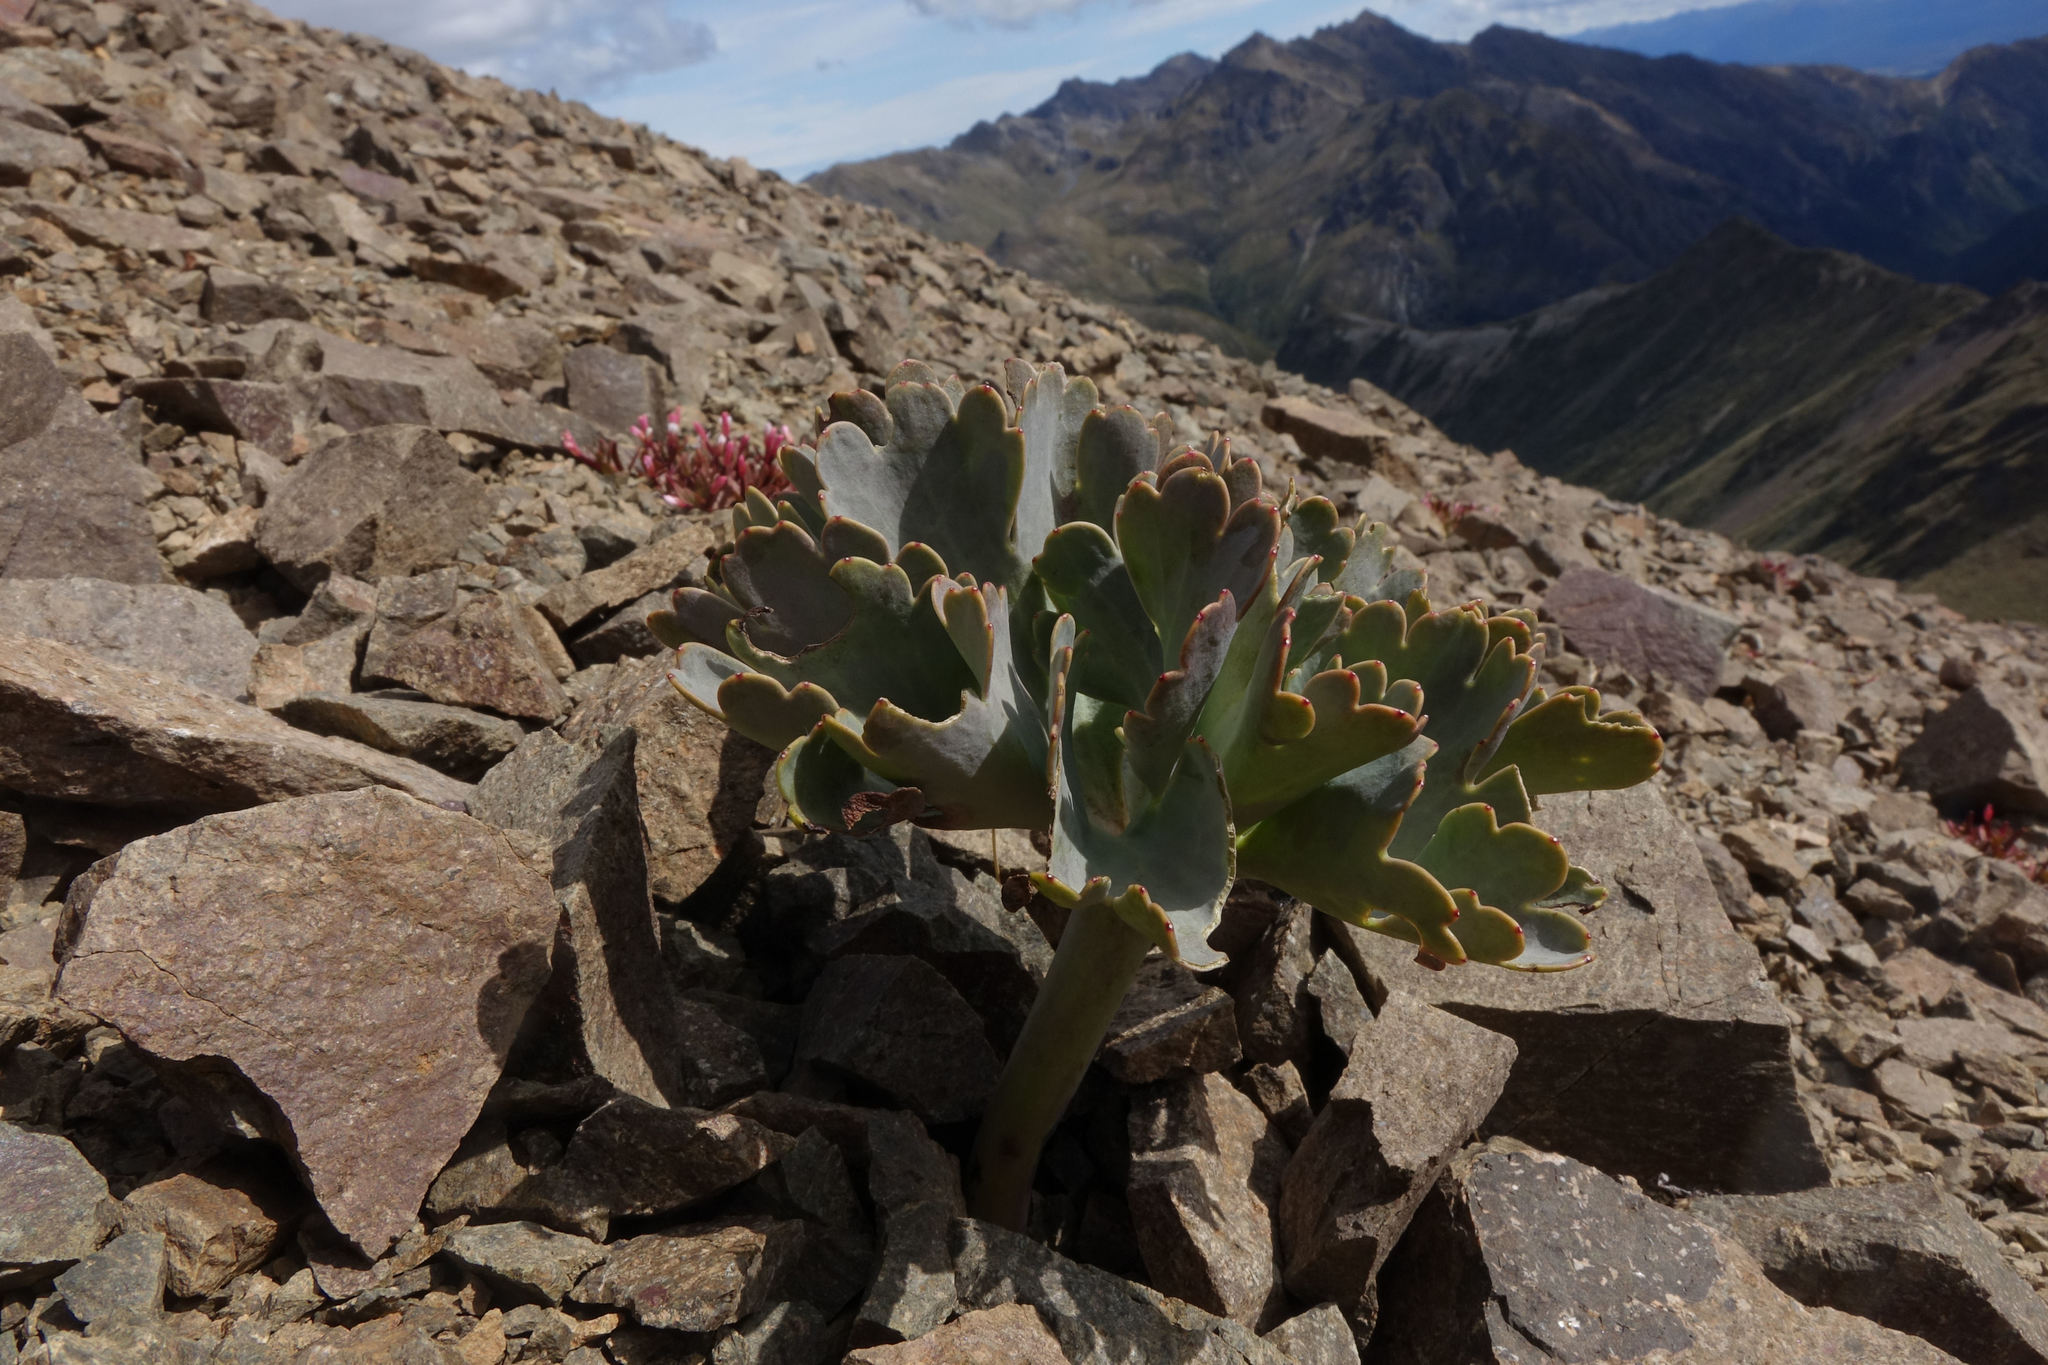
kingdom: Plantae
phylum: Tracheophyta
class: Magnoliopsida
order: Ranunculales
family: Ranunculaceae
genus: Ranunculus
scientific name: Ranunculus pilifer
